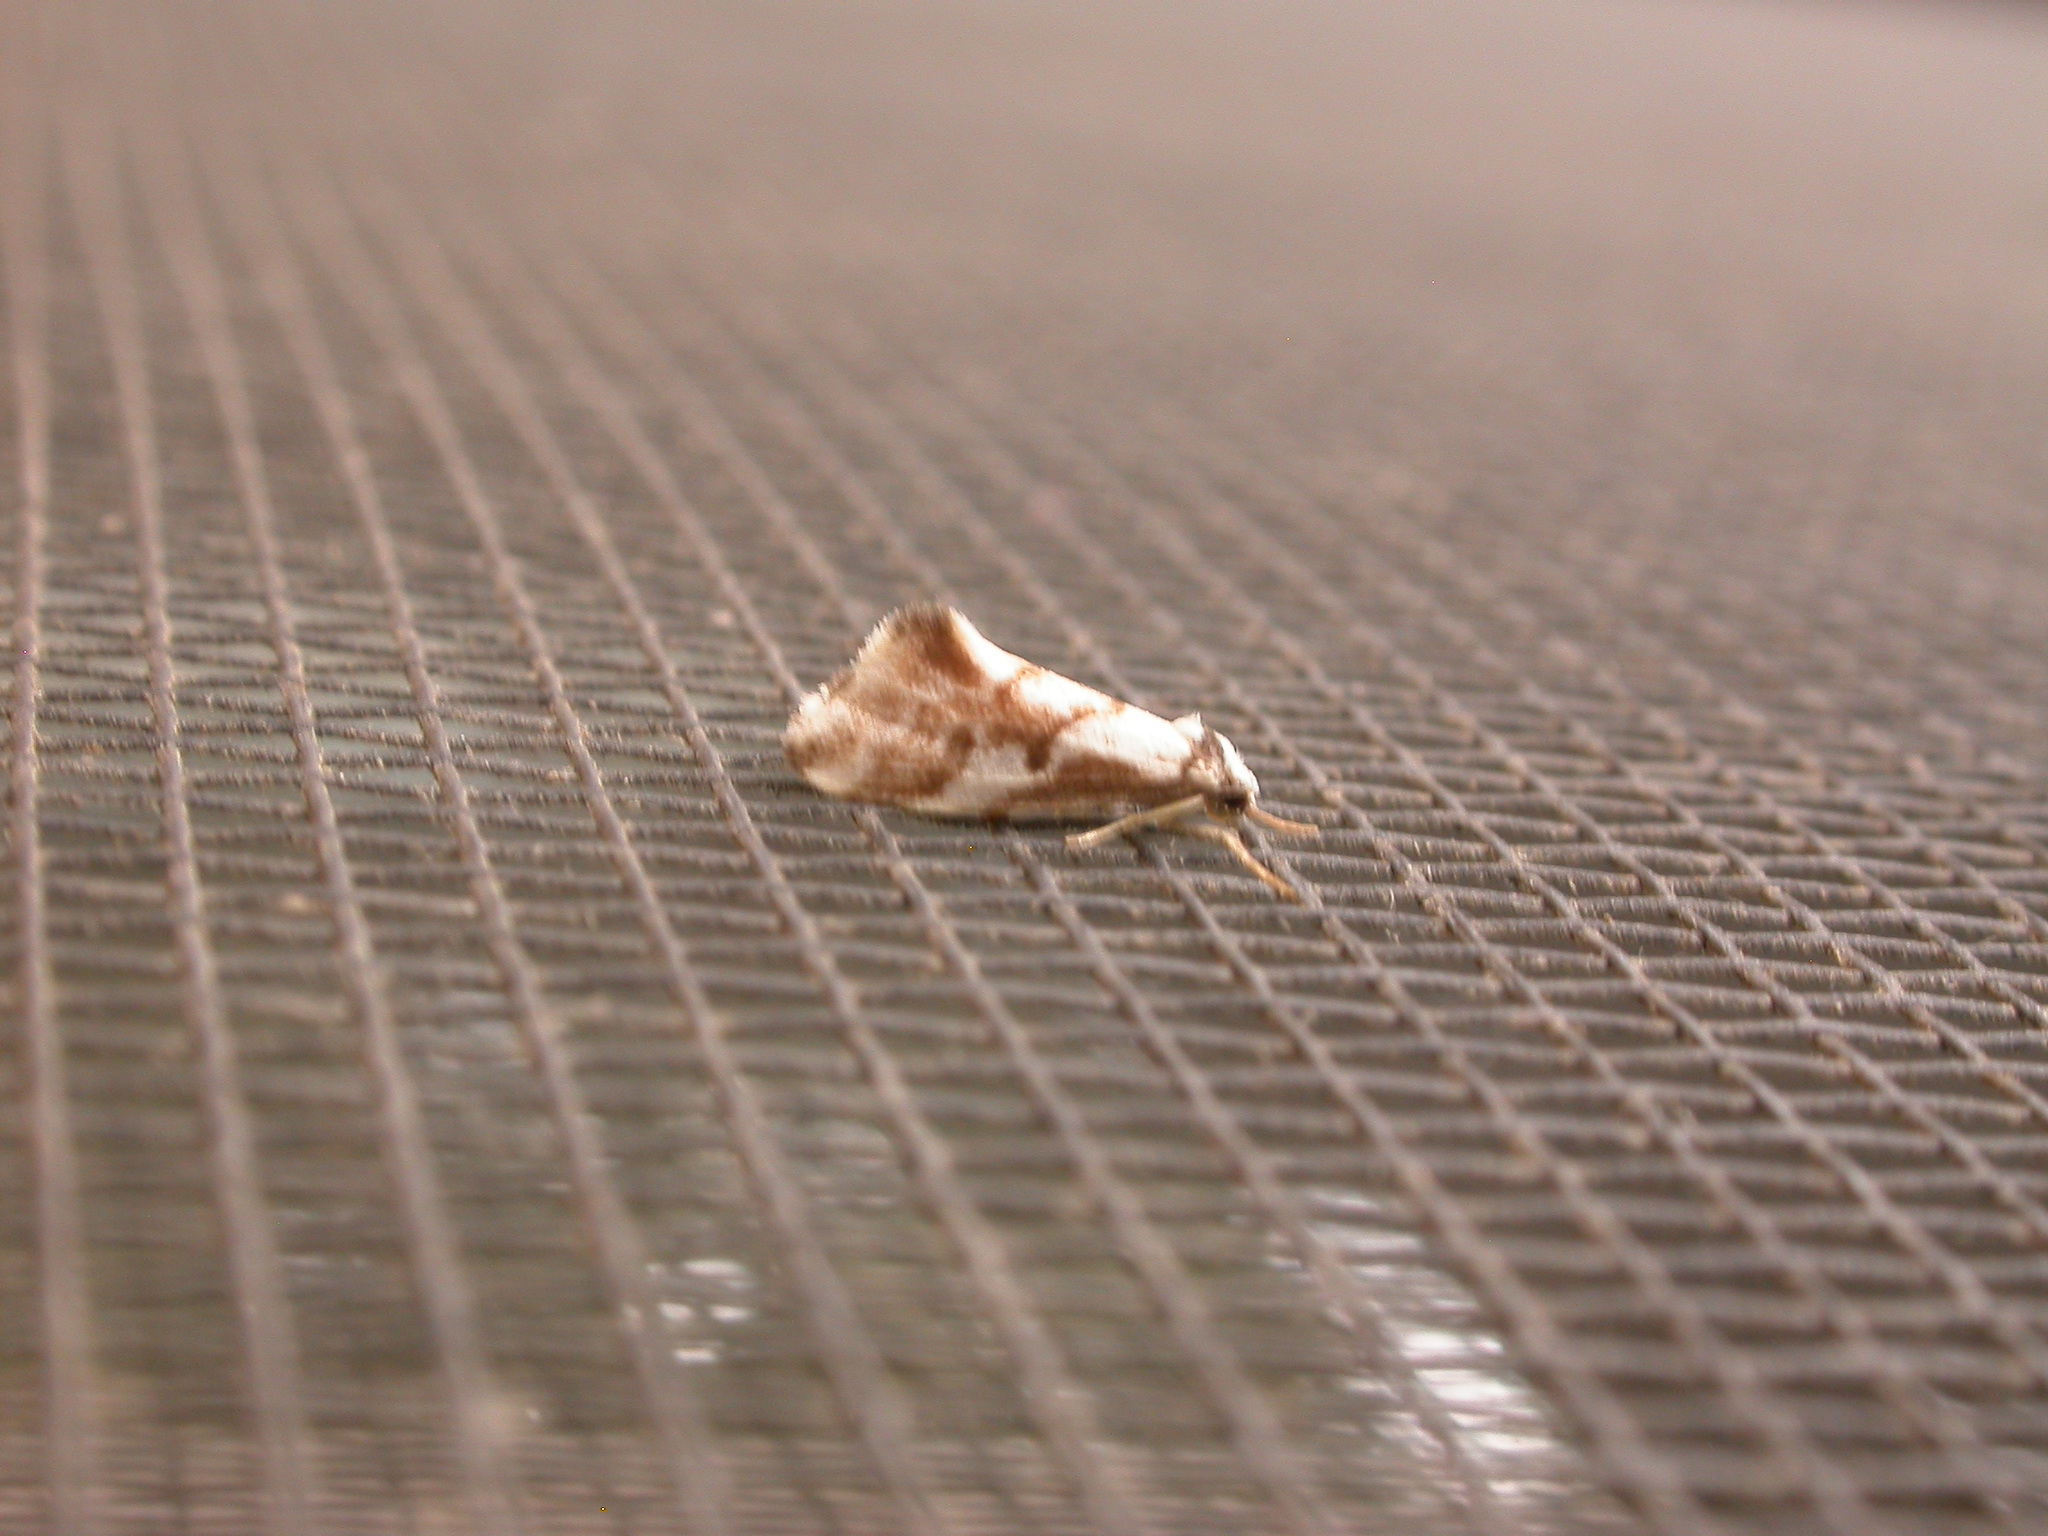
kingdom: Animalia
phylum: Arthropoda
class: Insecta
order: Lepidoptera
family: Erebidae
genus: Philenora
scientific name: Philenora malthaca
